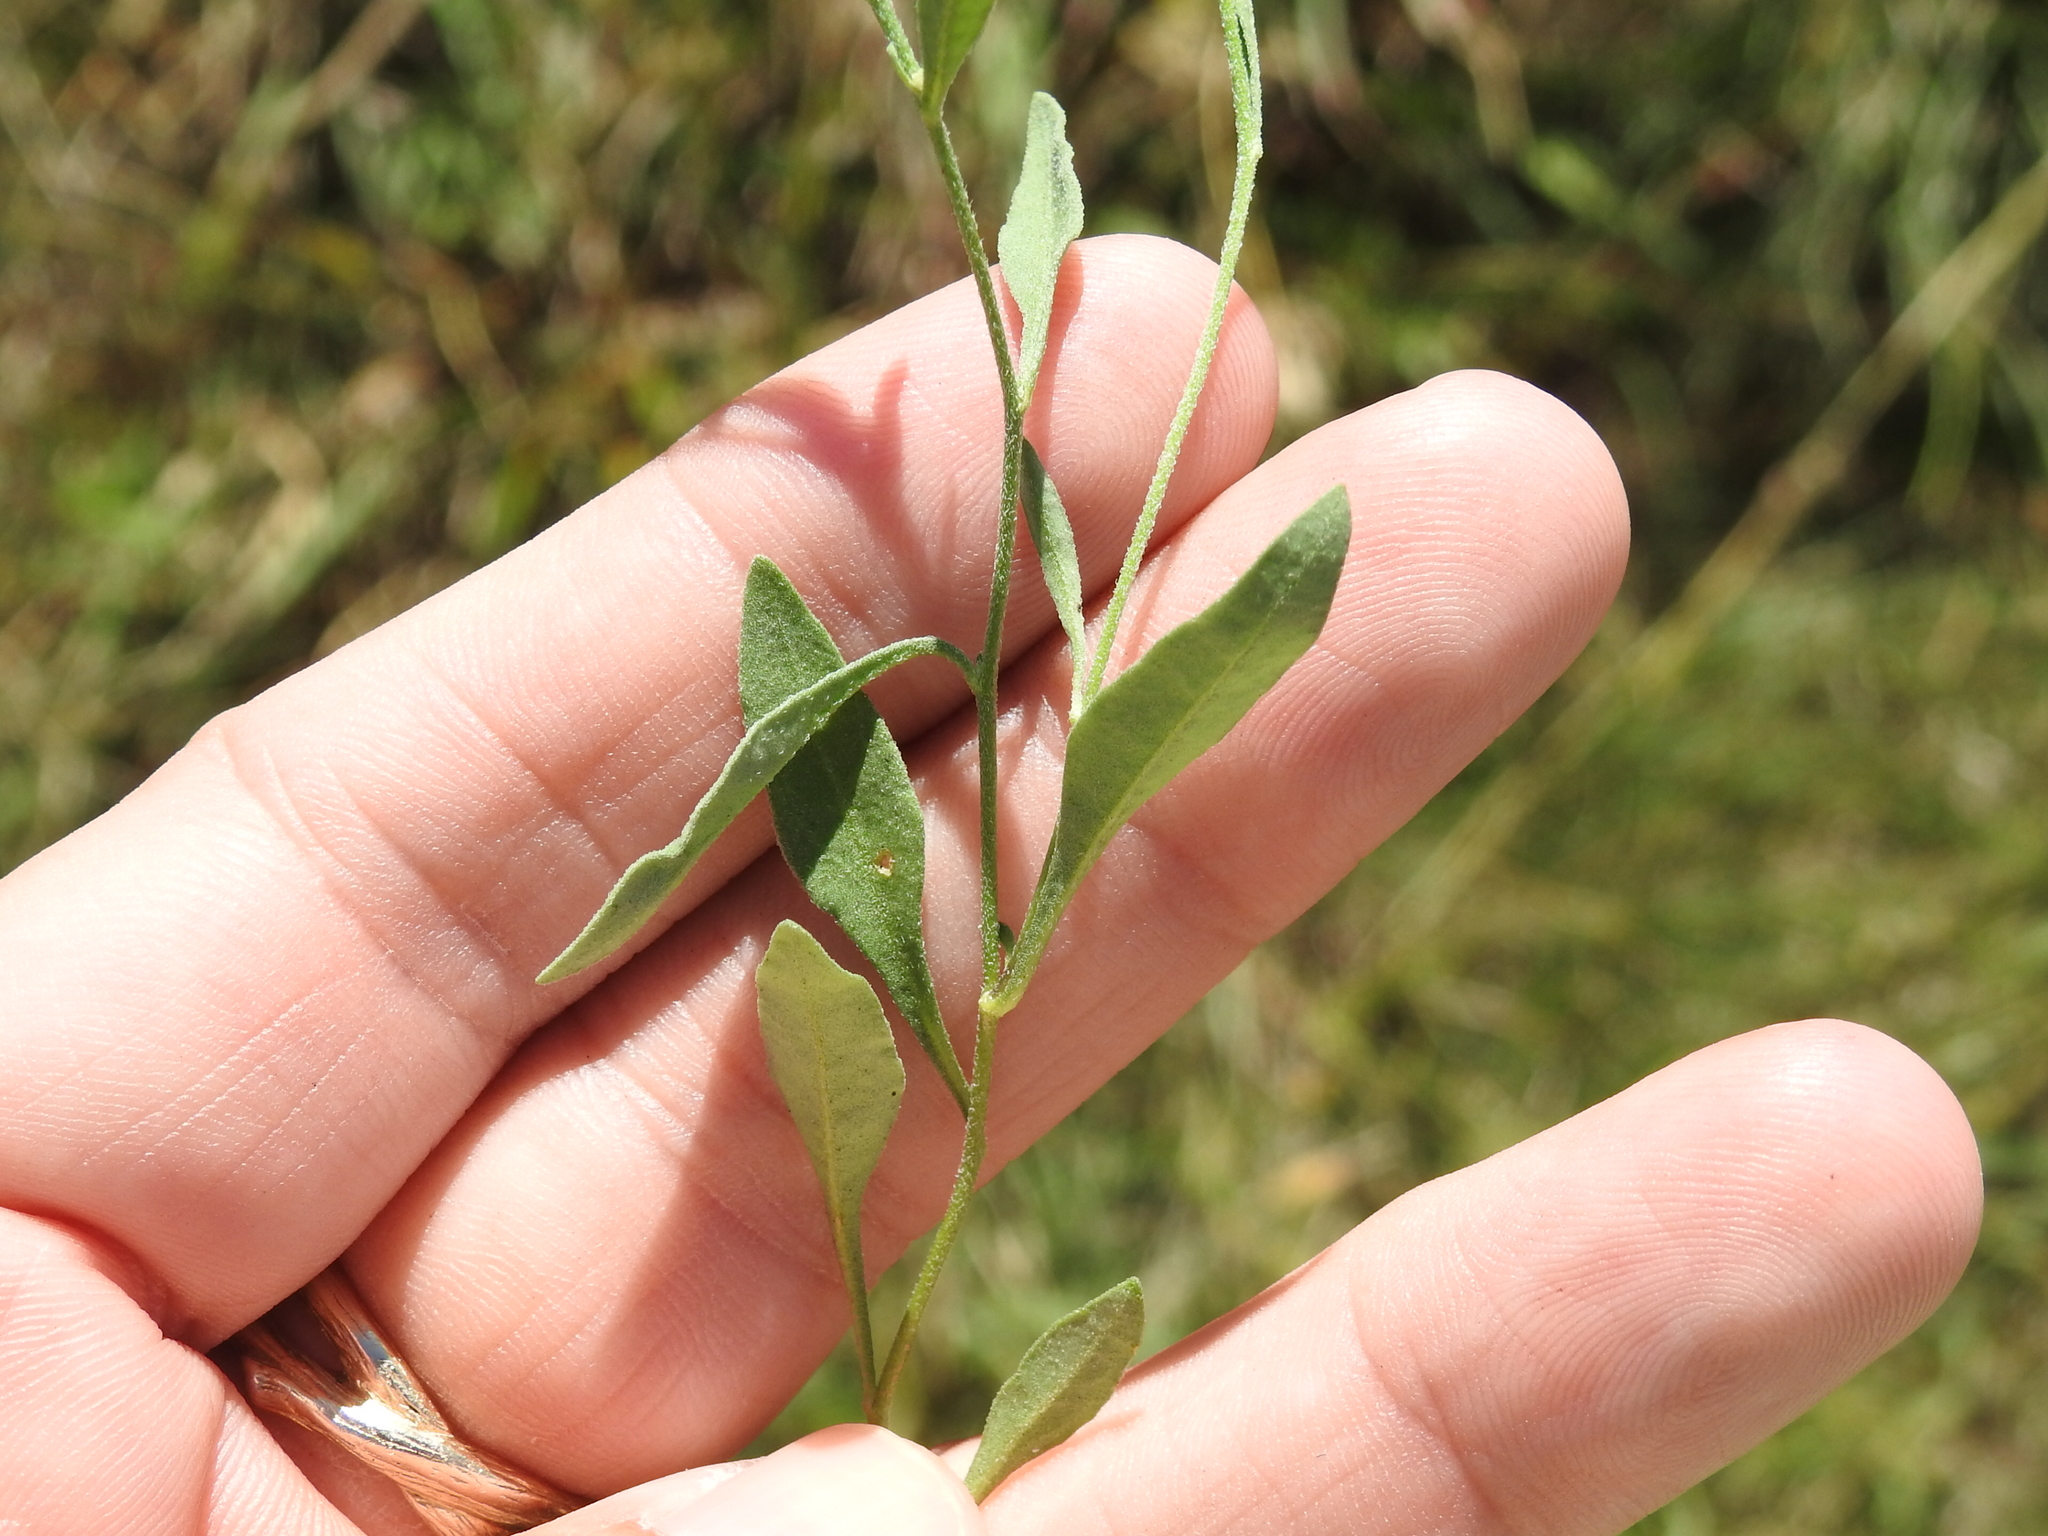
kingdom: Plantae
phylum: Tracheophyta
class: Magnoliopsida
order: Solanales
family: Solanaceae
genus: Salpiglossis
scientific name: Salpiglossis erecta
